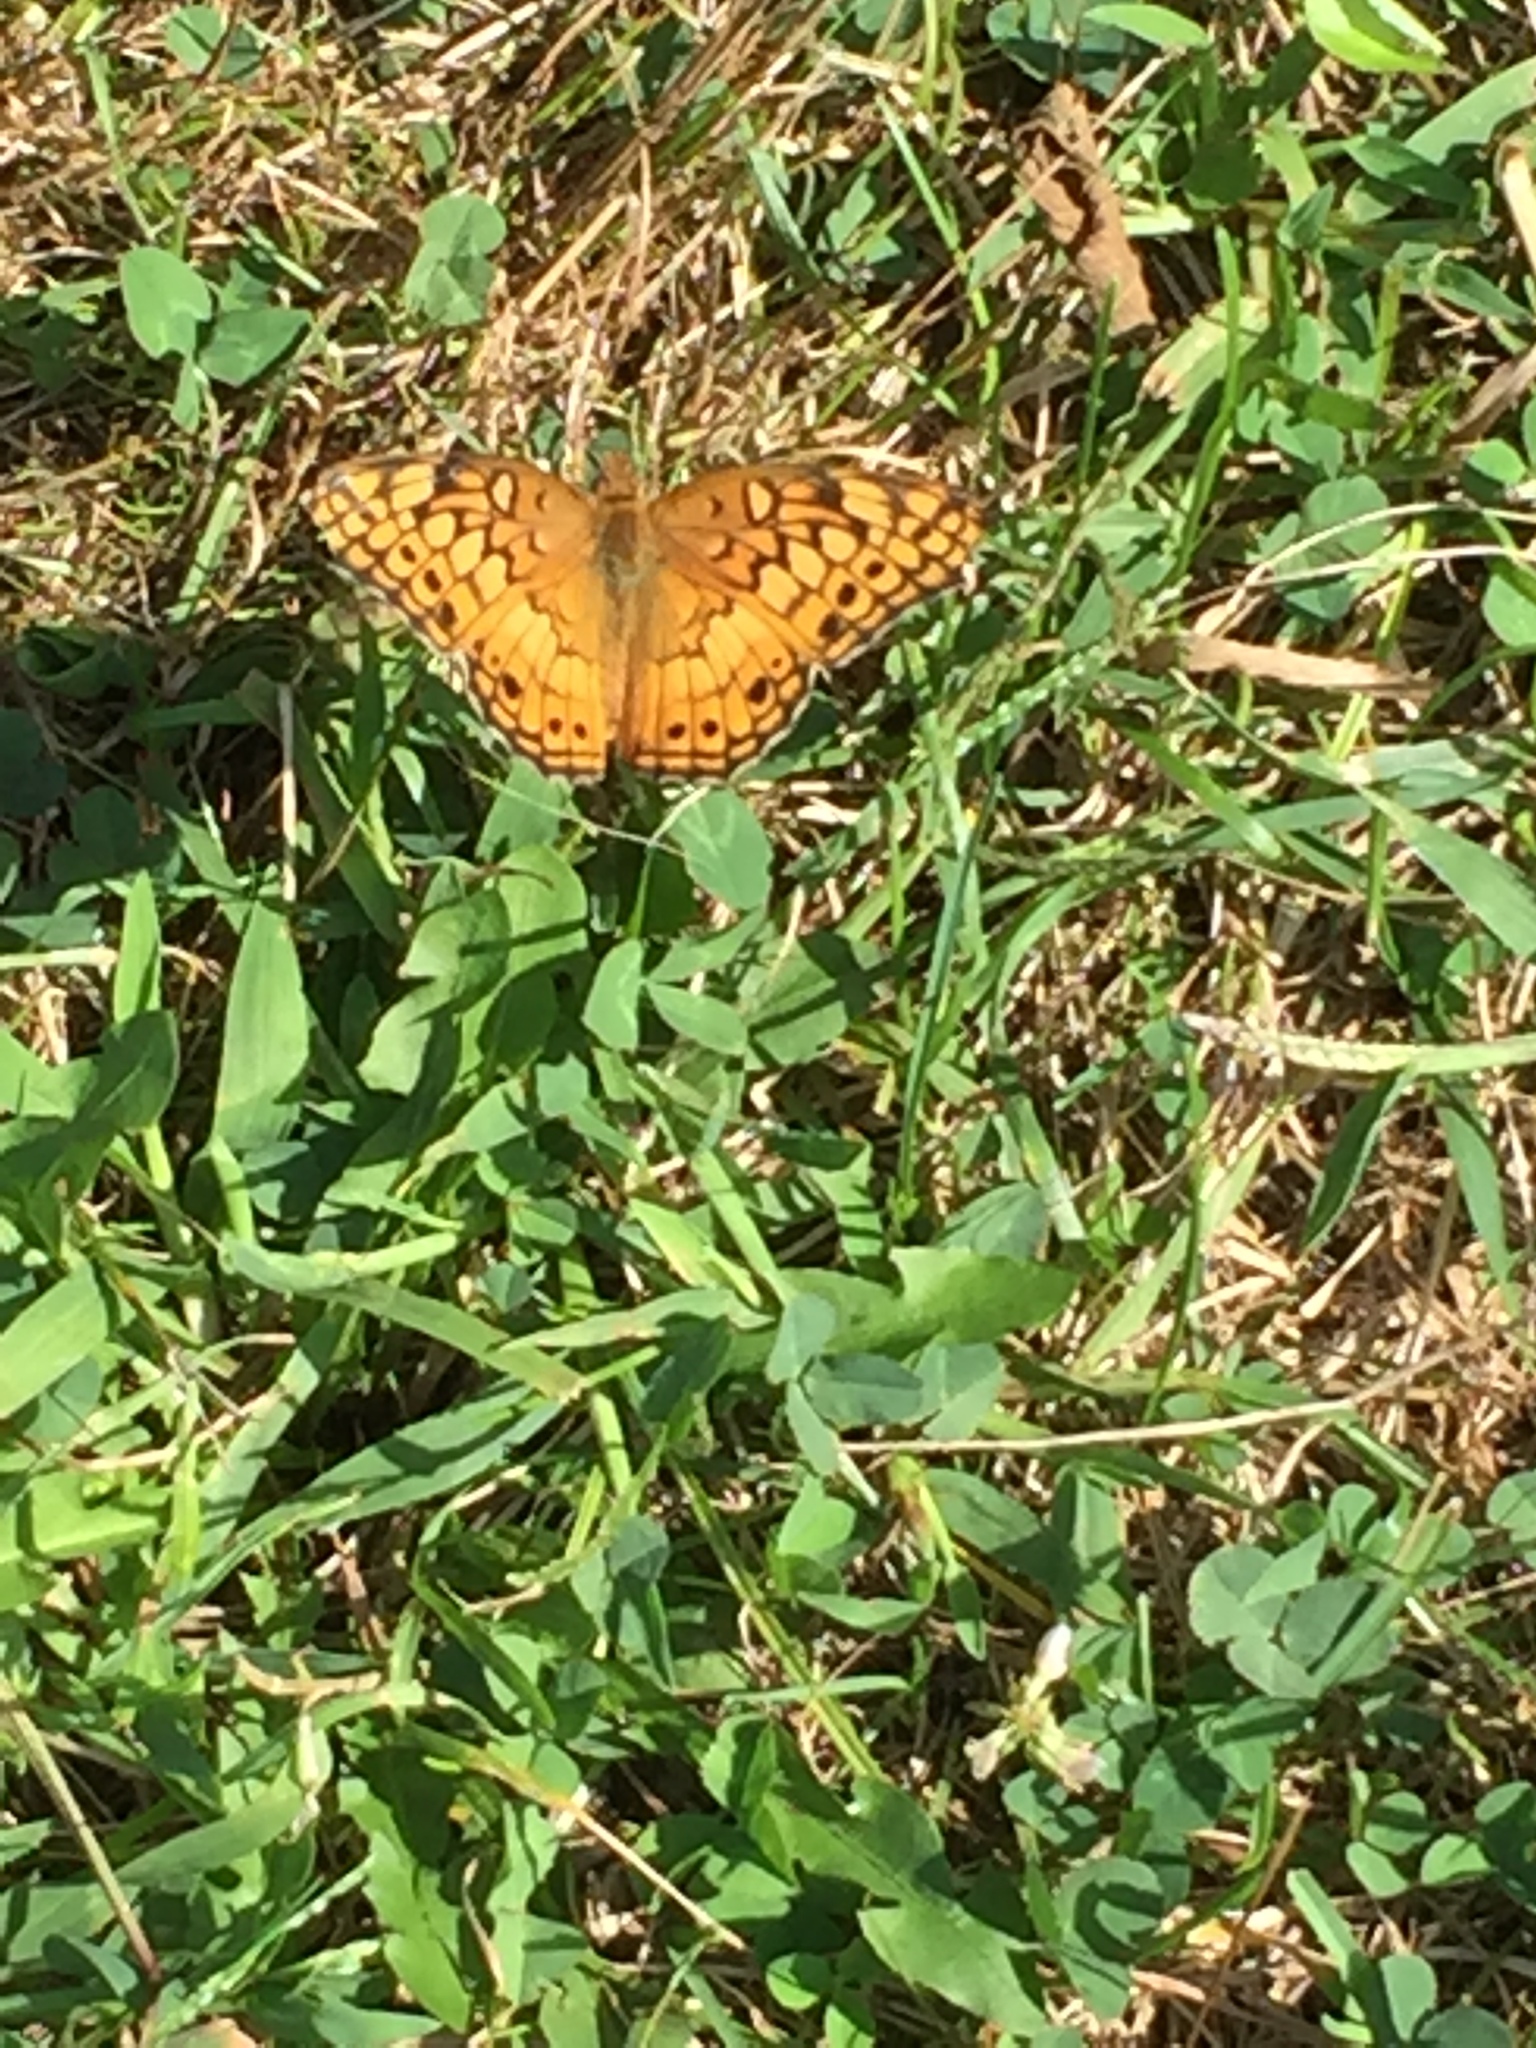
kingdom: Animalia
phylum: Arthropoda
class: Insecta
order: Lepidoptera
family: Nymphalidae
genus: Euptoieta
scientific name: Euptoieta claudia
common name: Variegated fritillary
